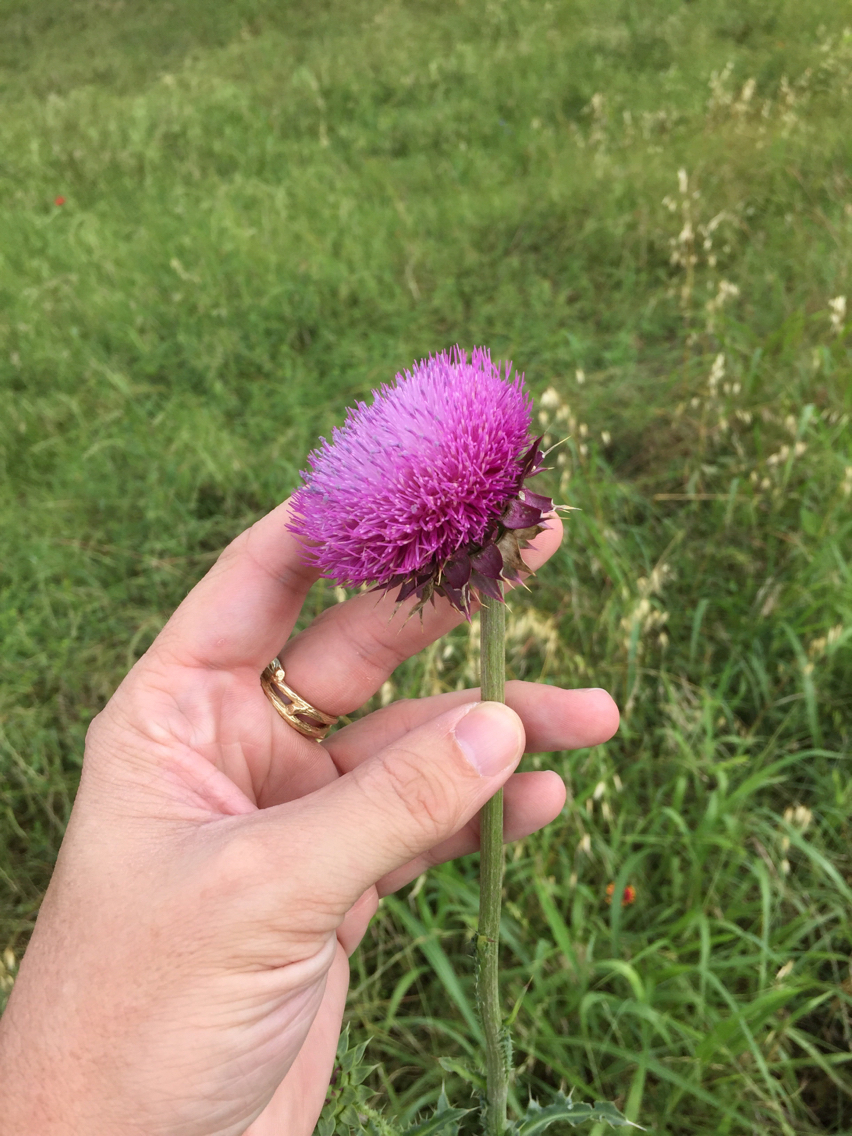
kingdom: Plantae
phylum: Tracheophyta
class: Magnoliopsida
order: Asterales
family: Asteraceae
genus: Carduus
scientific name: Carduus nutans
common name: Musk thistle
